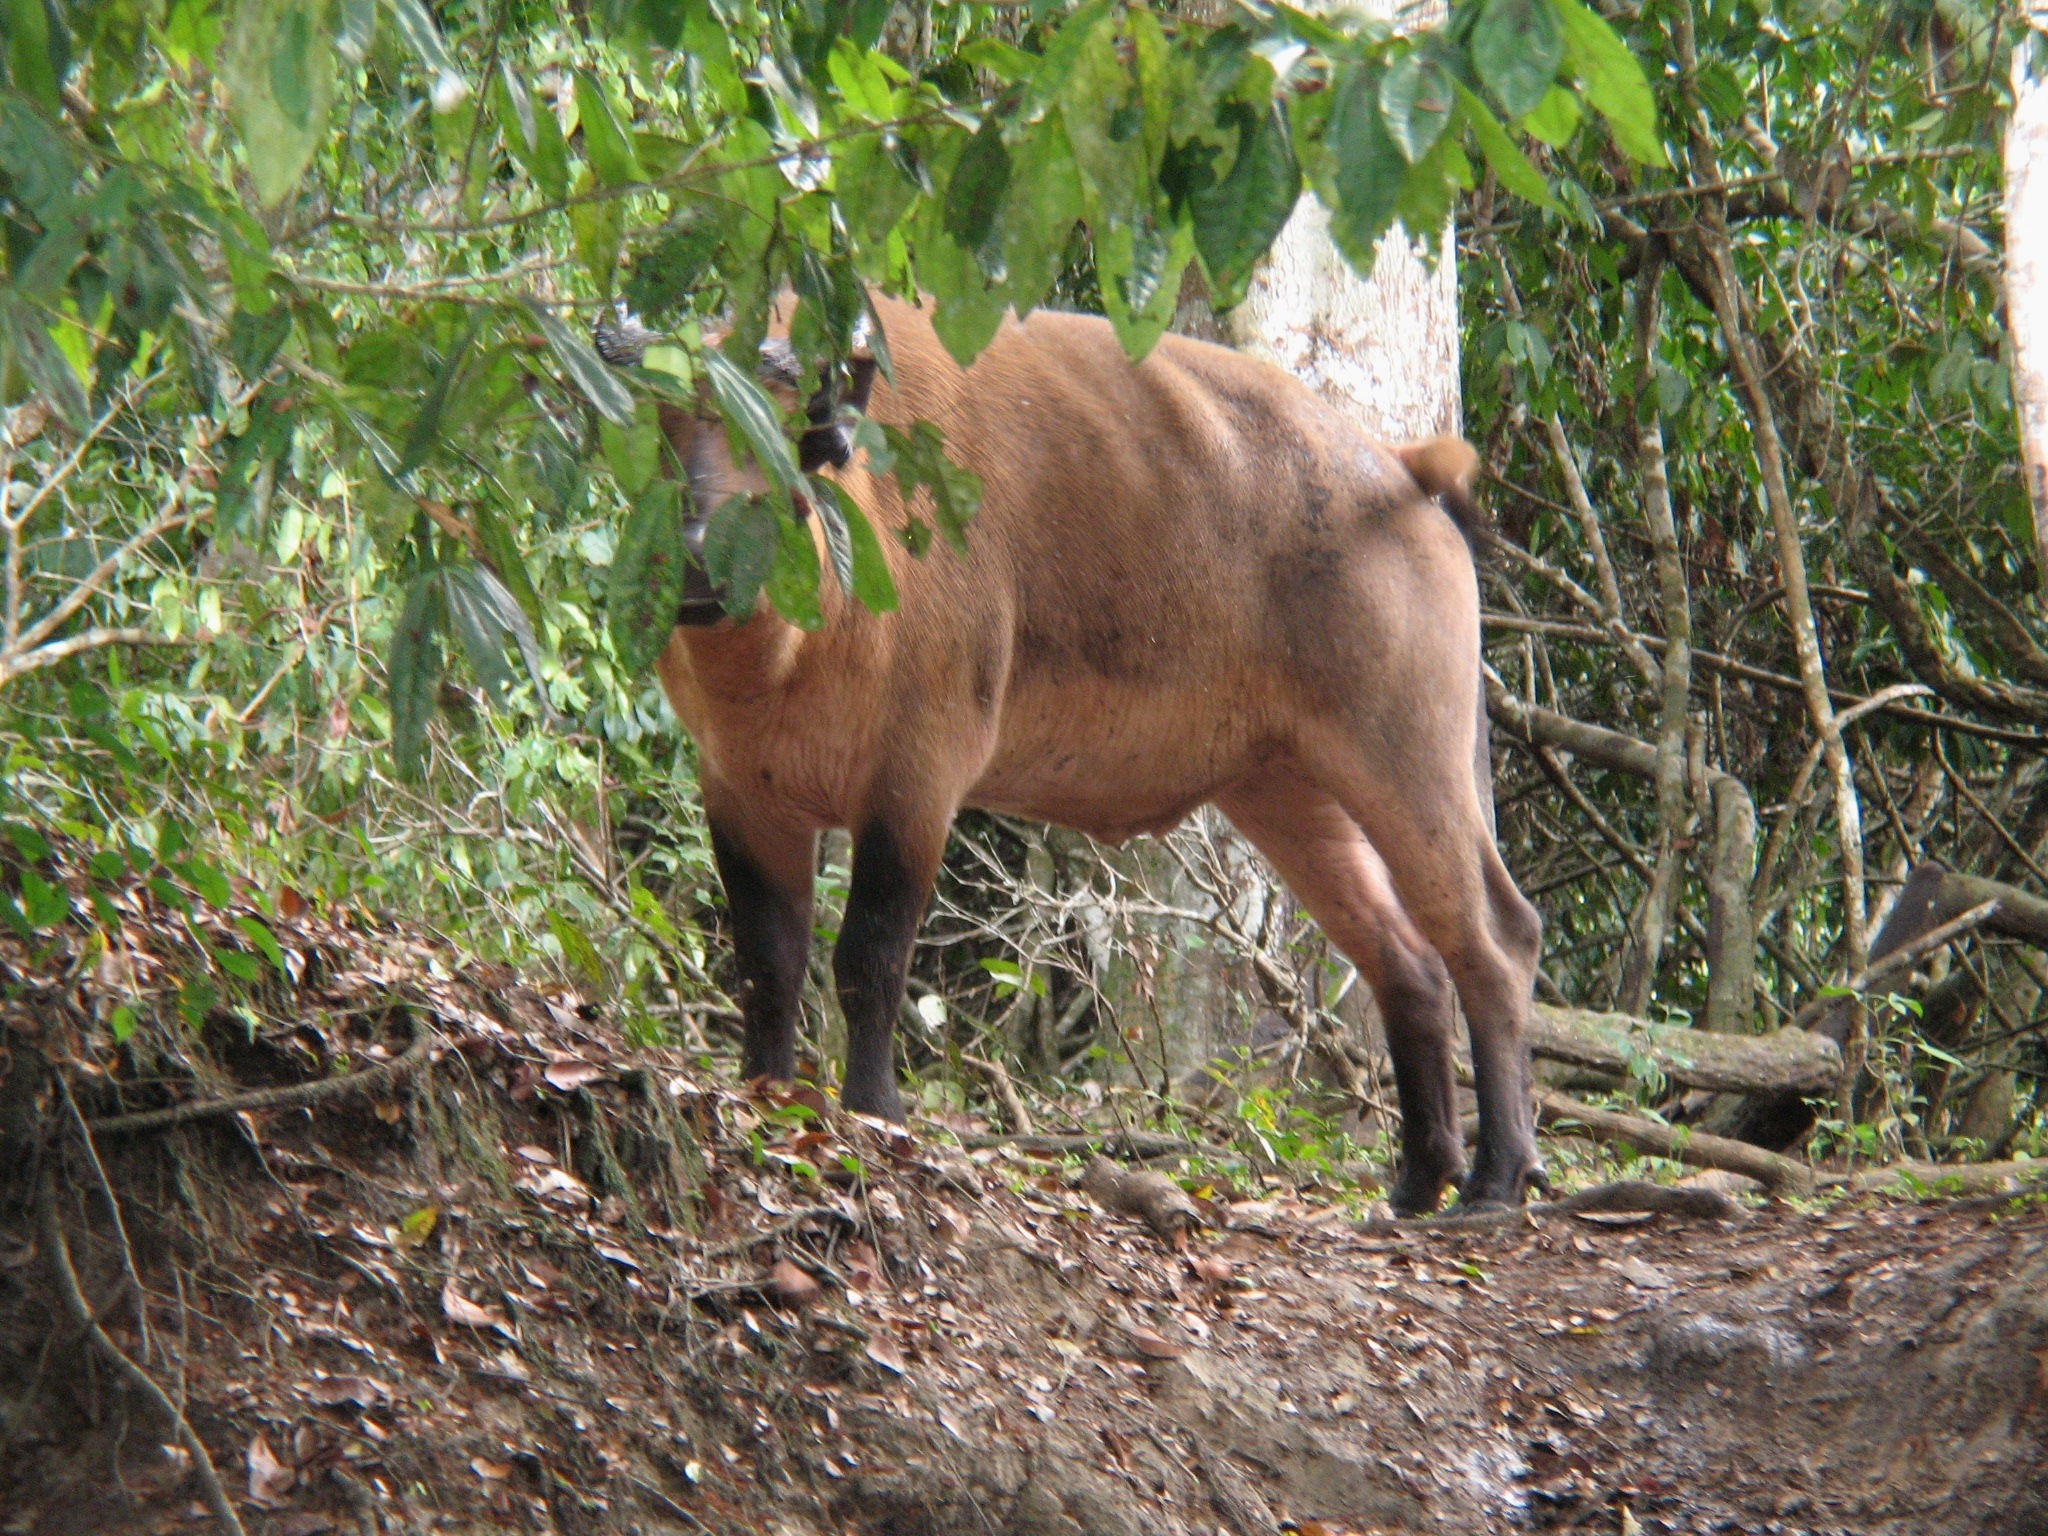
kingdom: Animalia
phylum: Chordata
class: Mammalia
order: Artiodactyla
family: Bovidae
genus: Syncerus
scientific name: Syncerus caffer
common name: African buffalo
